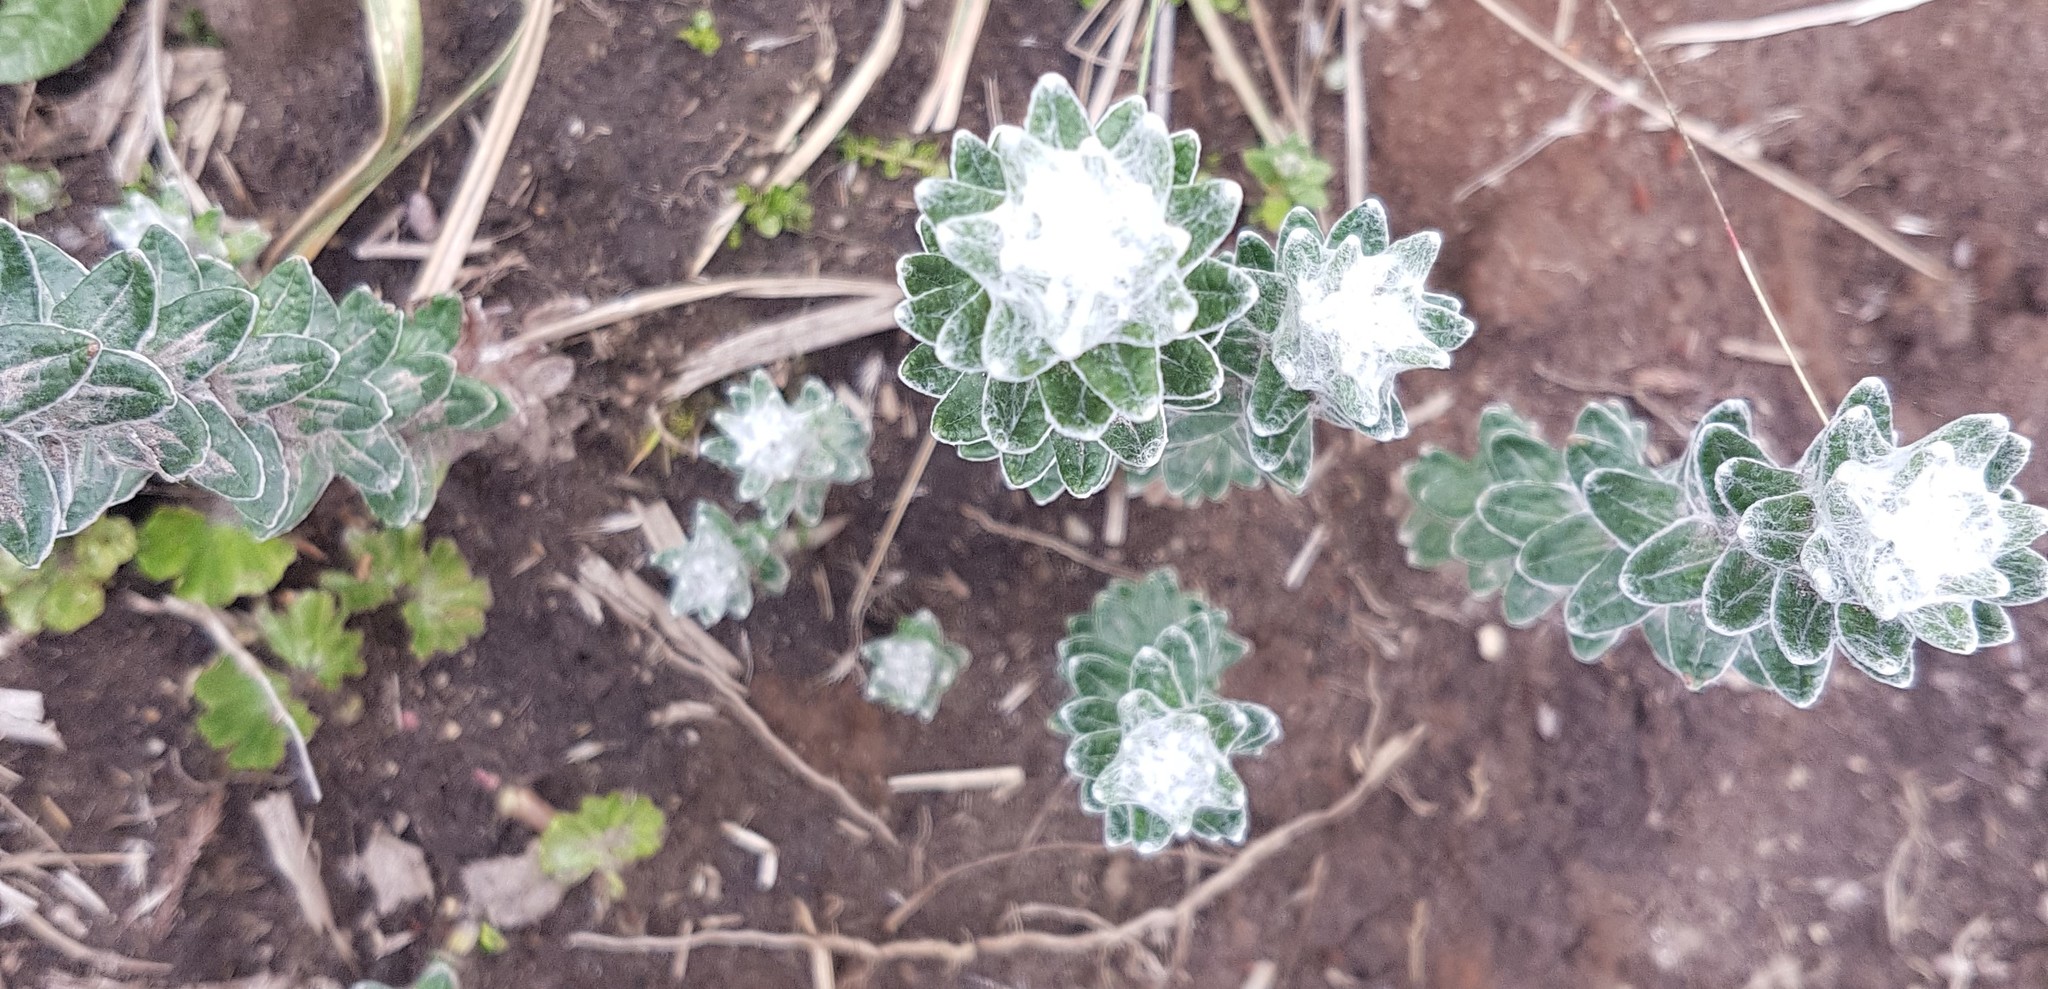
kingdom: Plantae
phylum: Tracheophyta
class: Magnoliopsida
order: Asterales
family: Asteraceae
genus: Lasiocephalus
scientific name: Lasiocephalus ovatus
